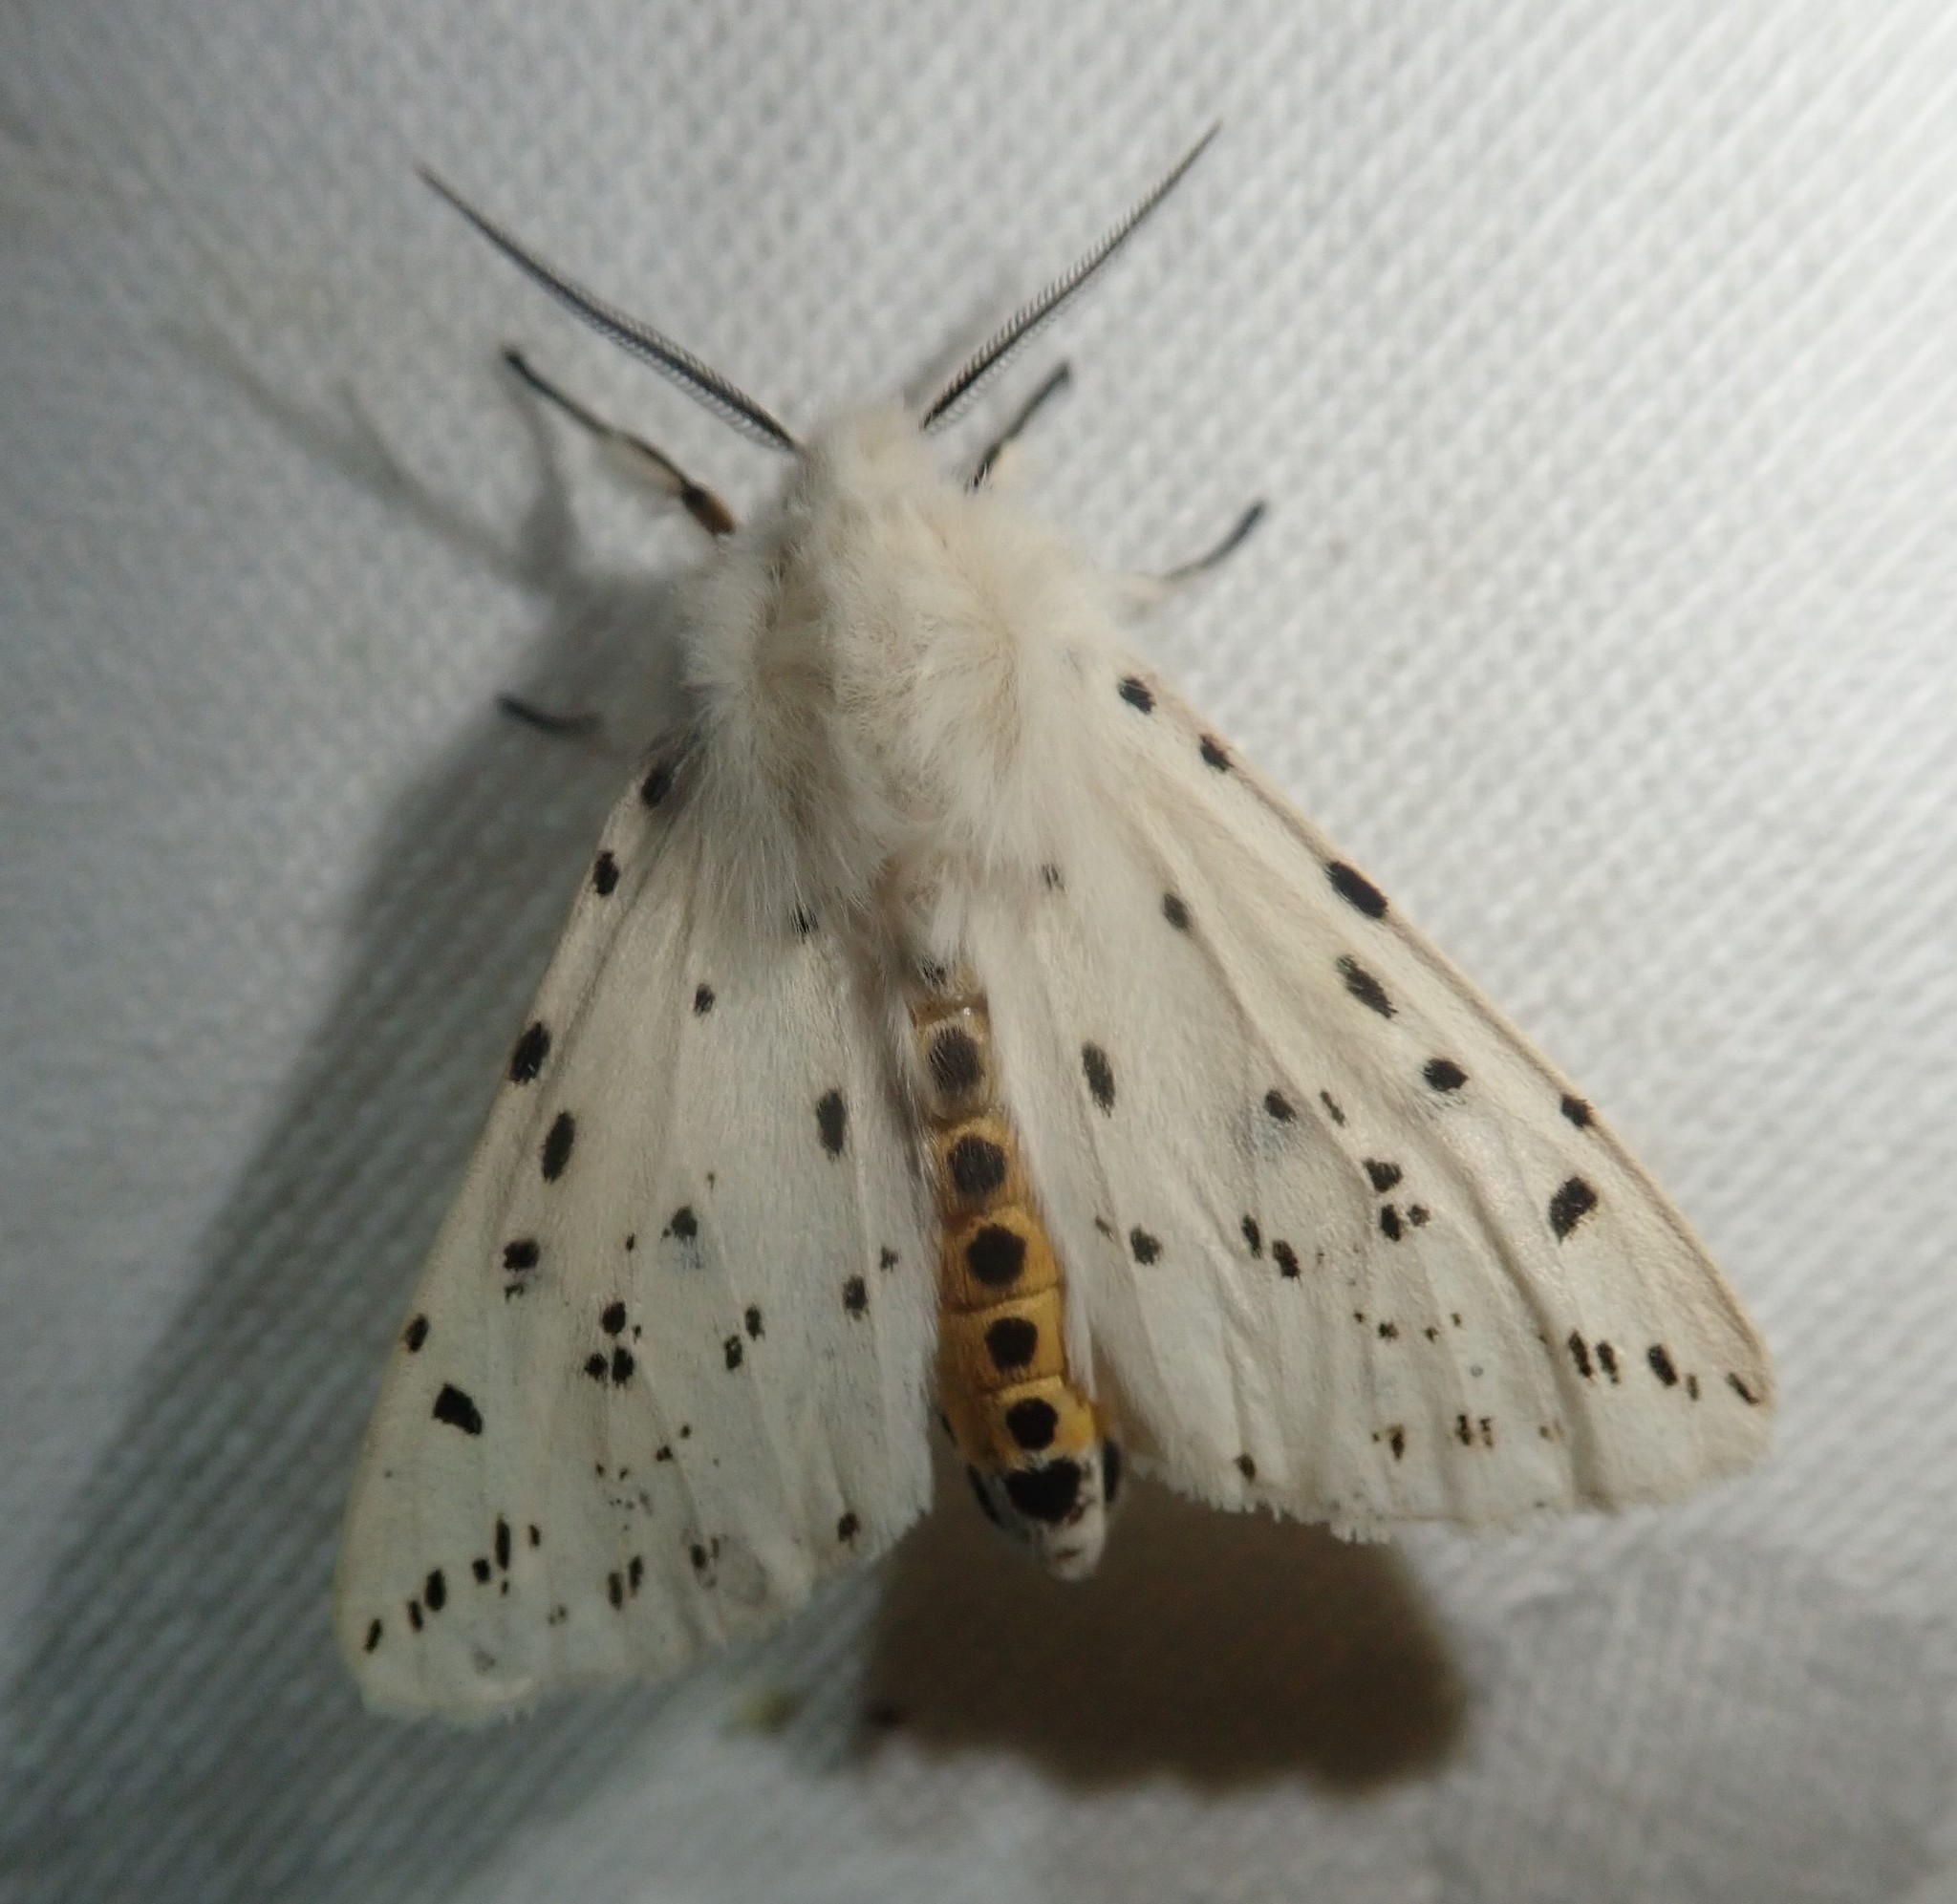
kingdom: Animalia
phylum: Arthropoda
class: Insecta
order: Lepidoptera
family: Erebidae
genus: Spilosoma
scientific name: Spilosoma lubricipeda
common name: White ermine
